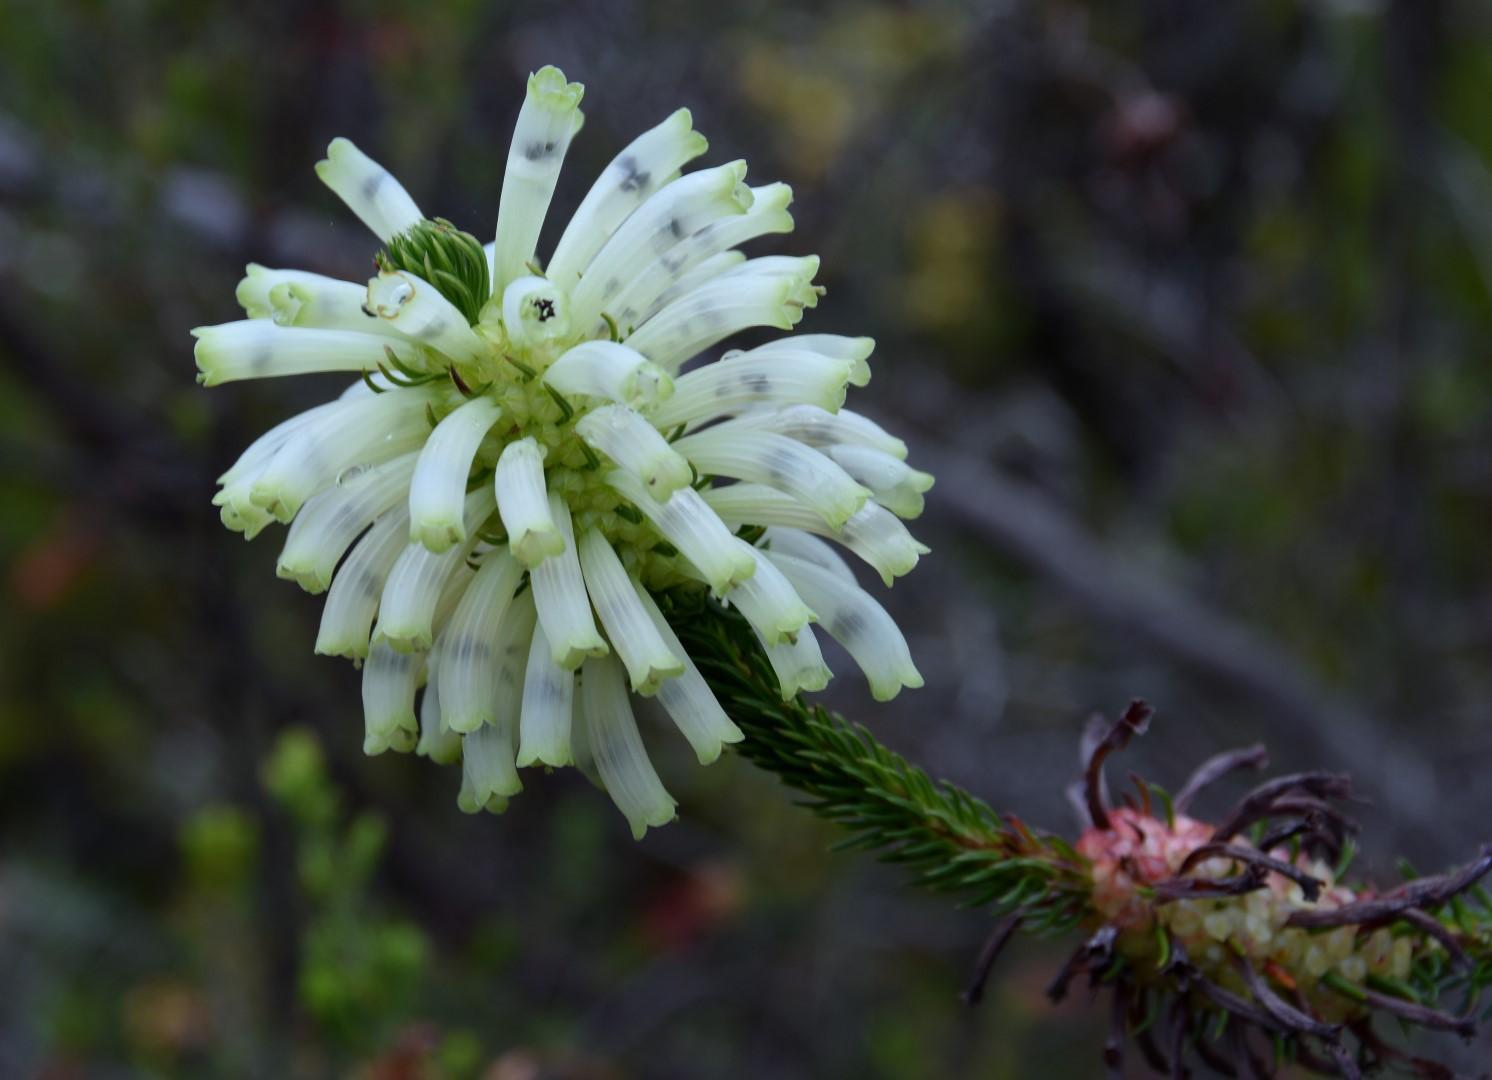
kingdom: Plantae
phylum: Tracheophyta
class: Magnoliopsida
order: Ericales
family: Ericaceae
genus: Erica
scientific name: Erica sessiliflora
